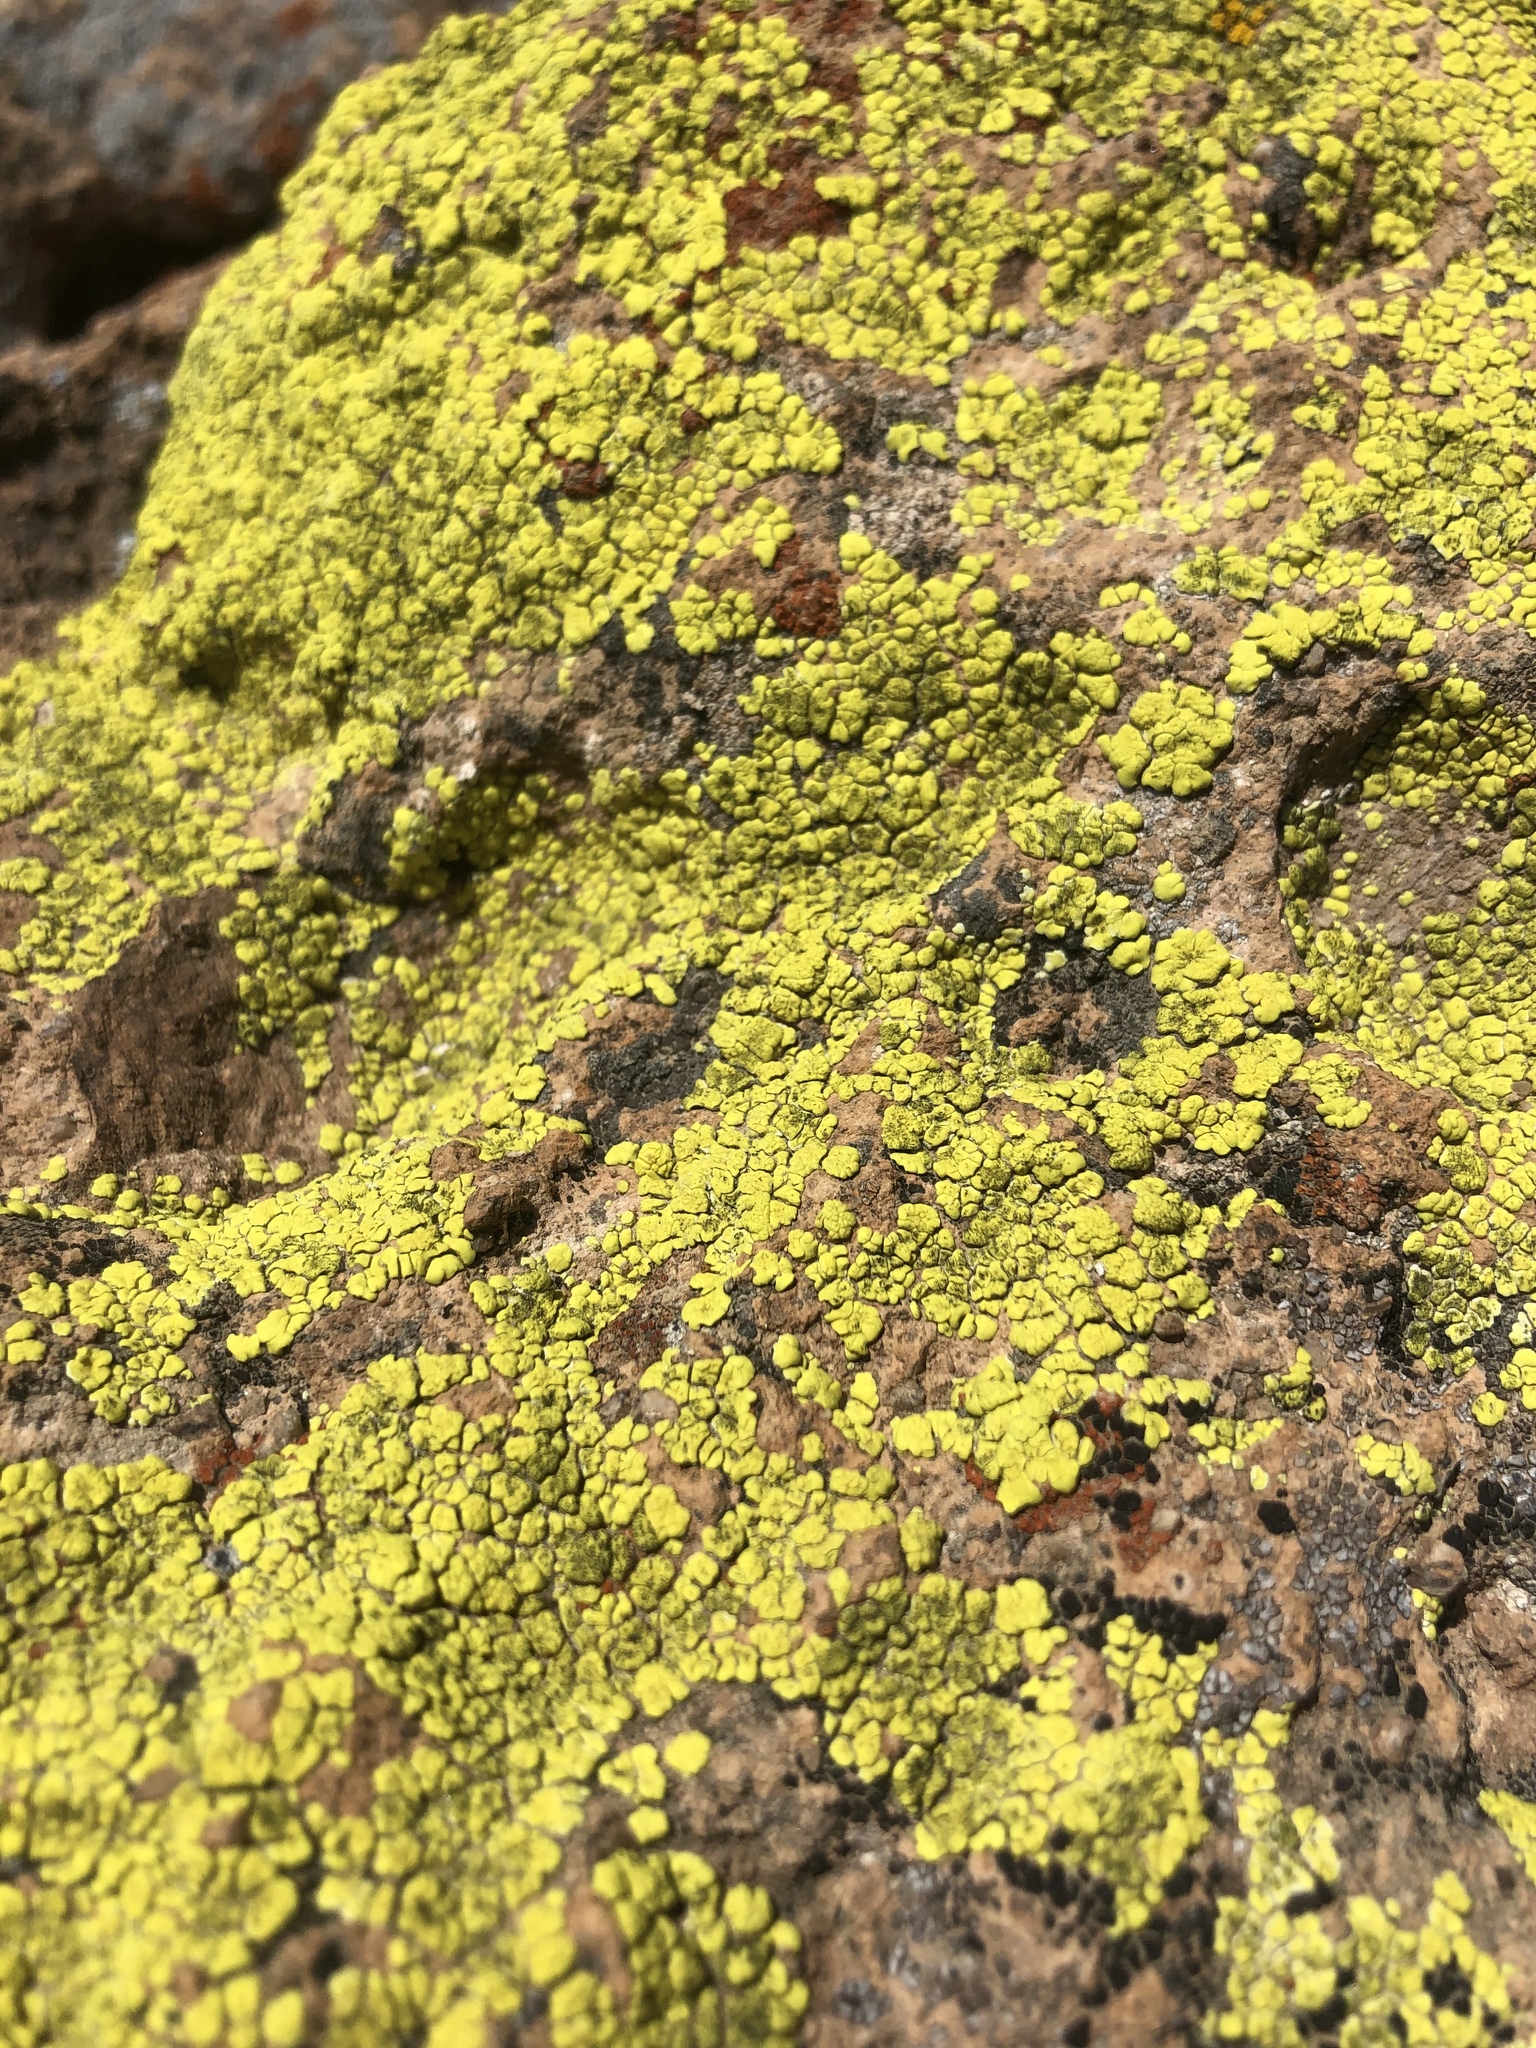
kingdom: Fungi
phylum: Ascomycota
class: Lecanoromycetes
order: Acarosporales
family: Acarosporaceae
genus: Acarospora
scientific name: Acarospora socialis
